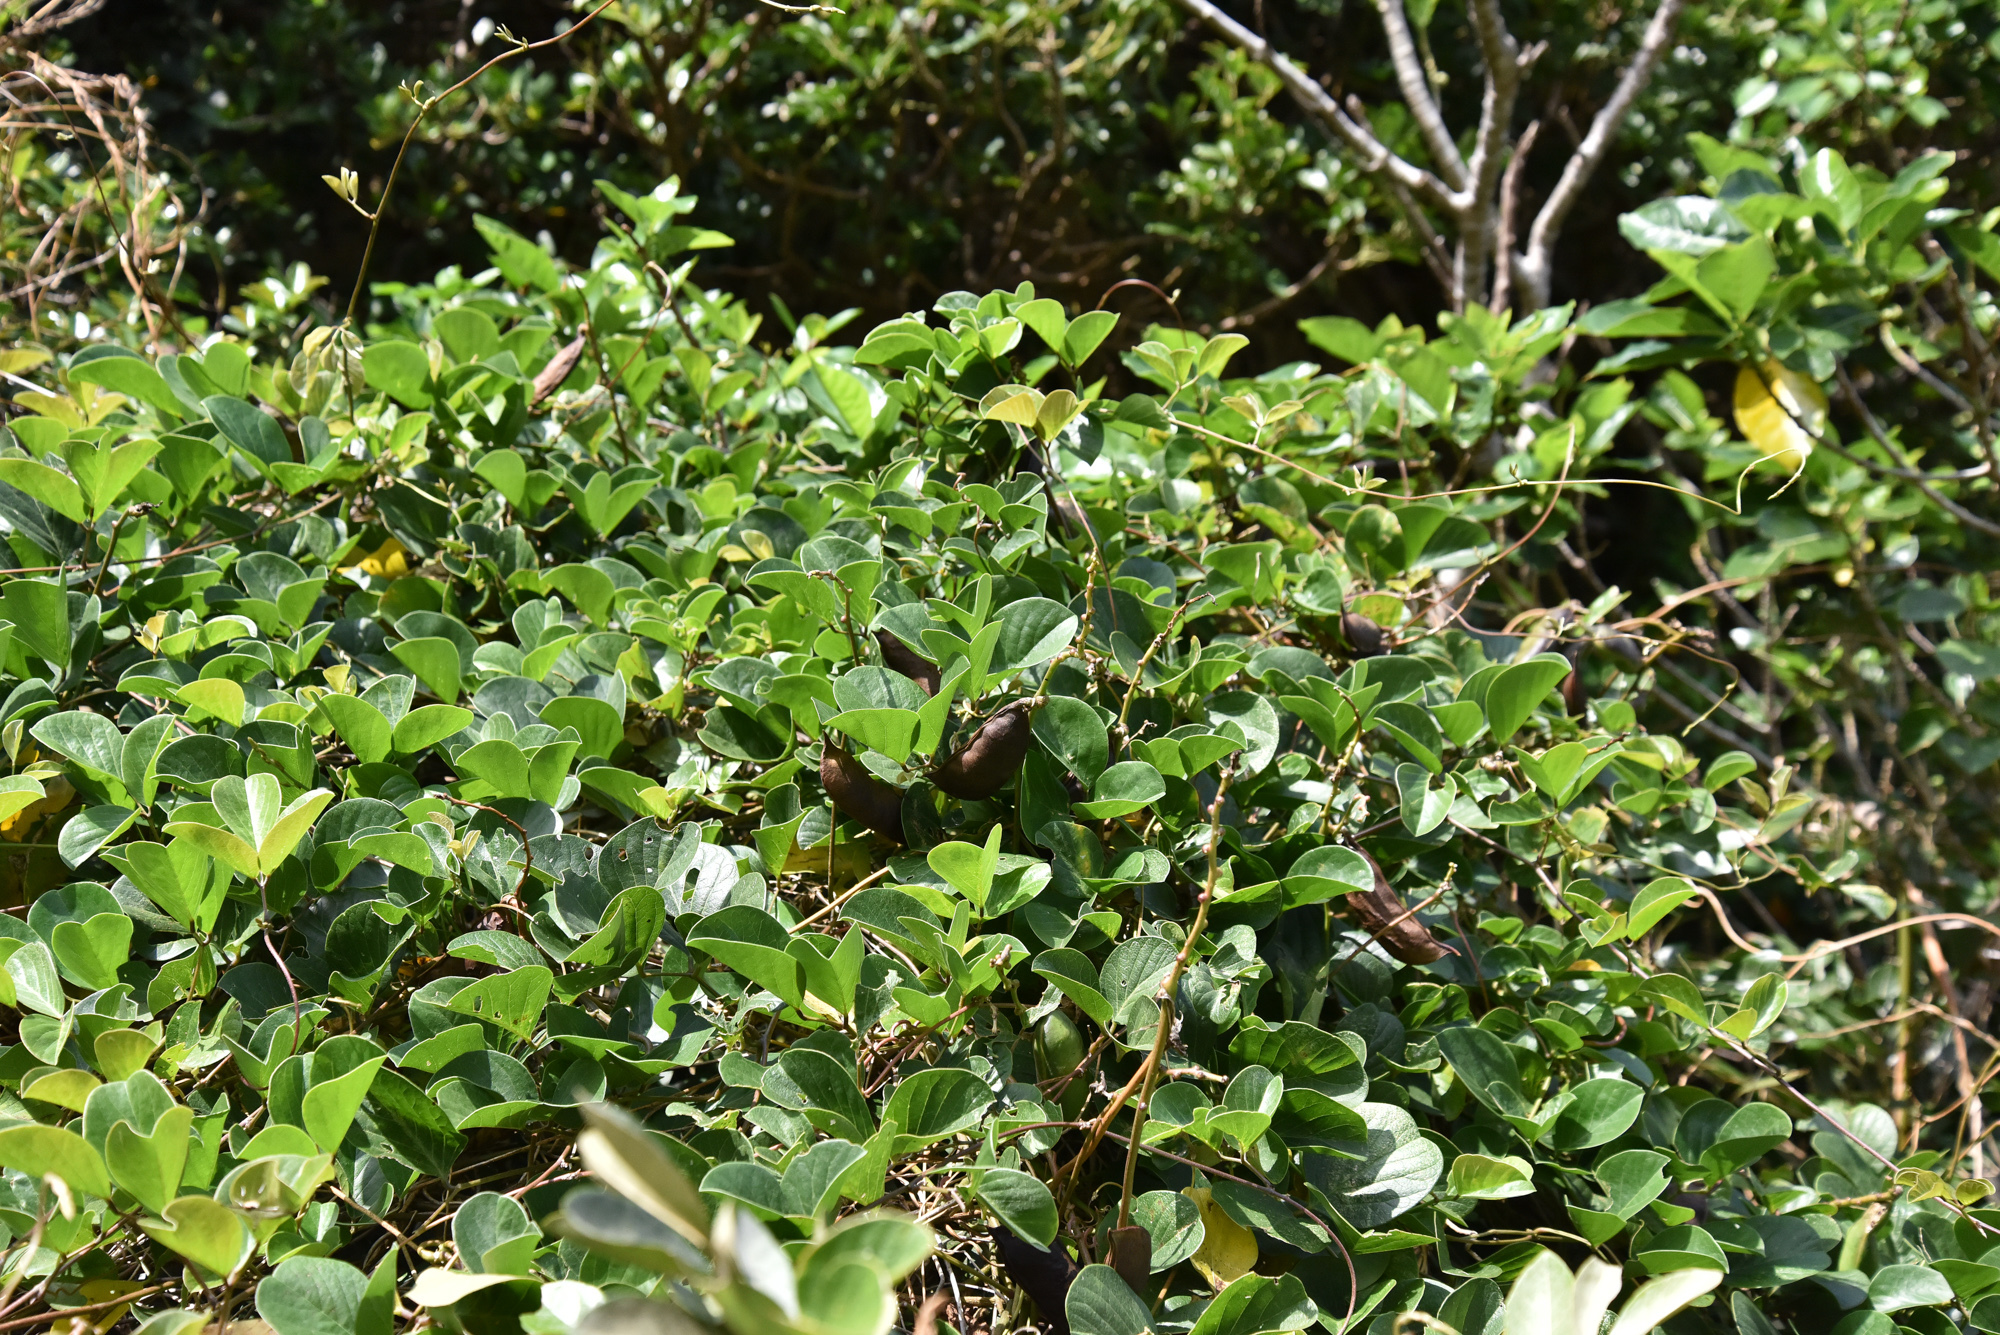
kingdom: Plantae
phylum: Tracheophyta
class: Magnoliopsida
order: Fabales
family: Fabaceae
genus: Canavalia
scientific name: Canavalia rosea
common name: Beach-bean
